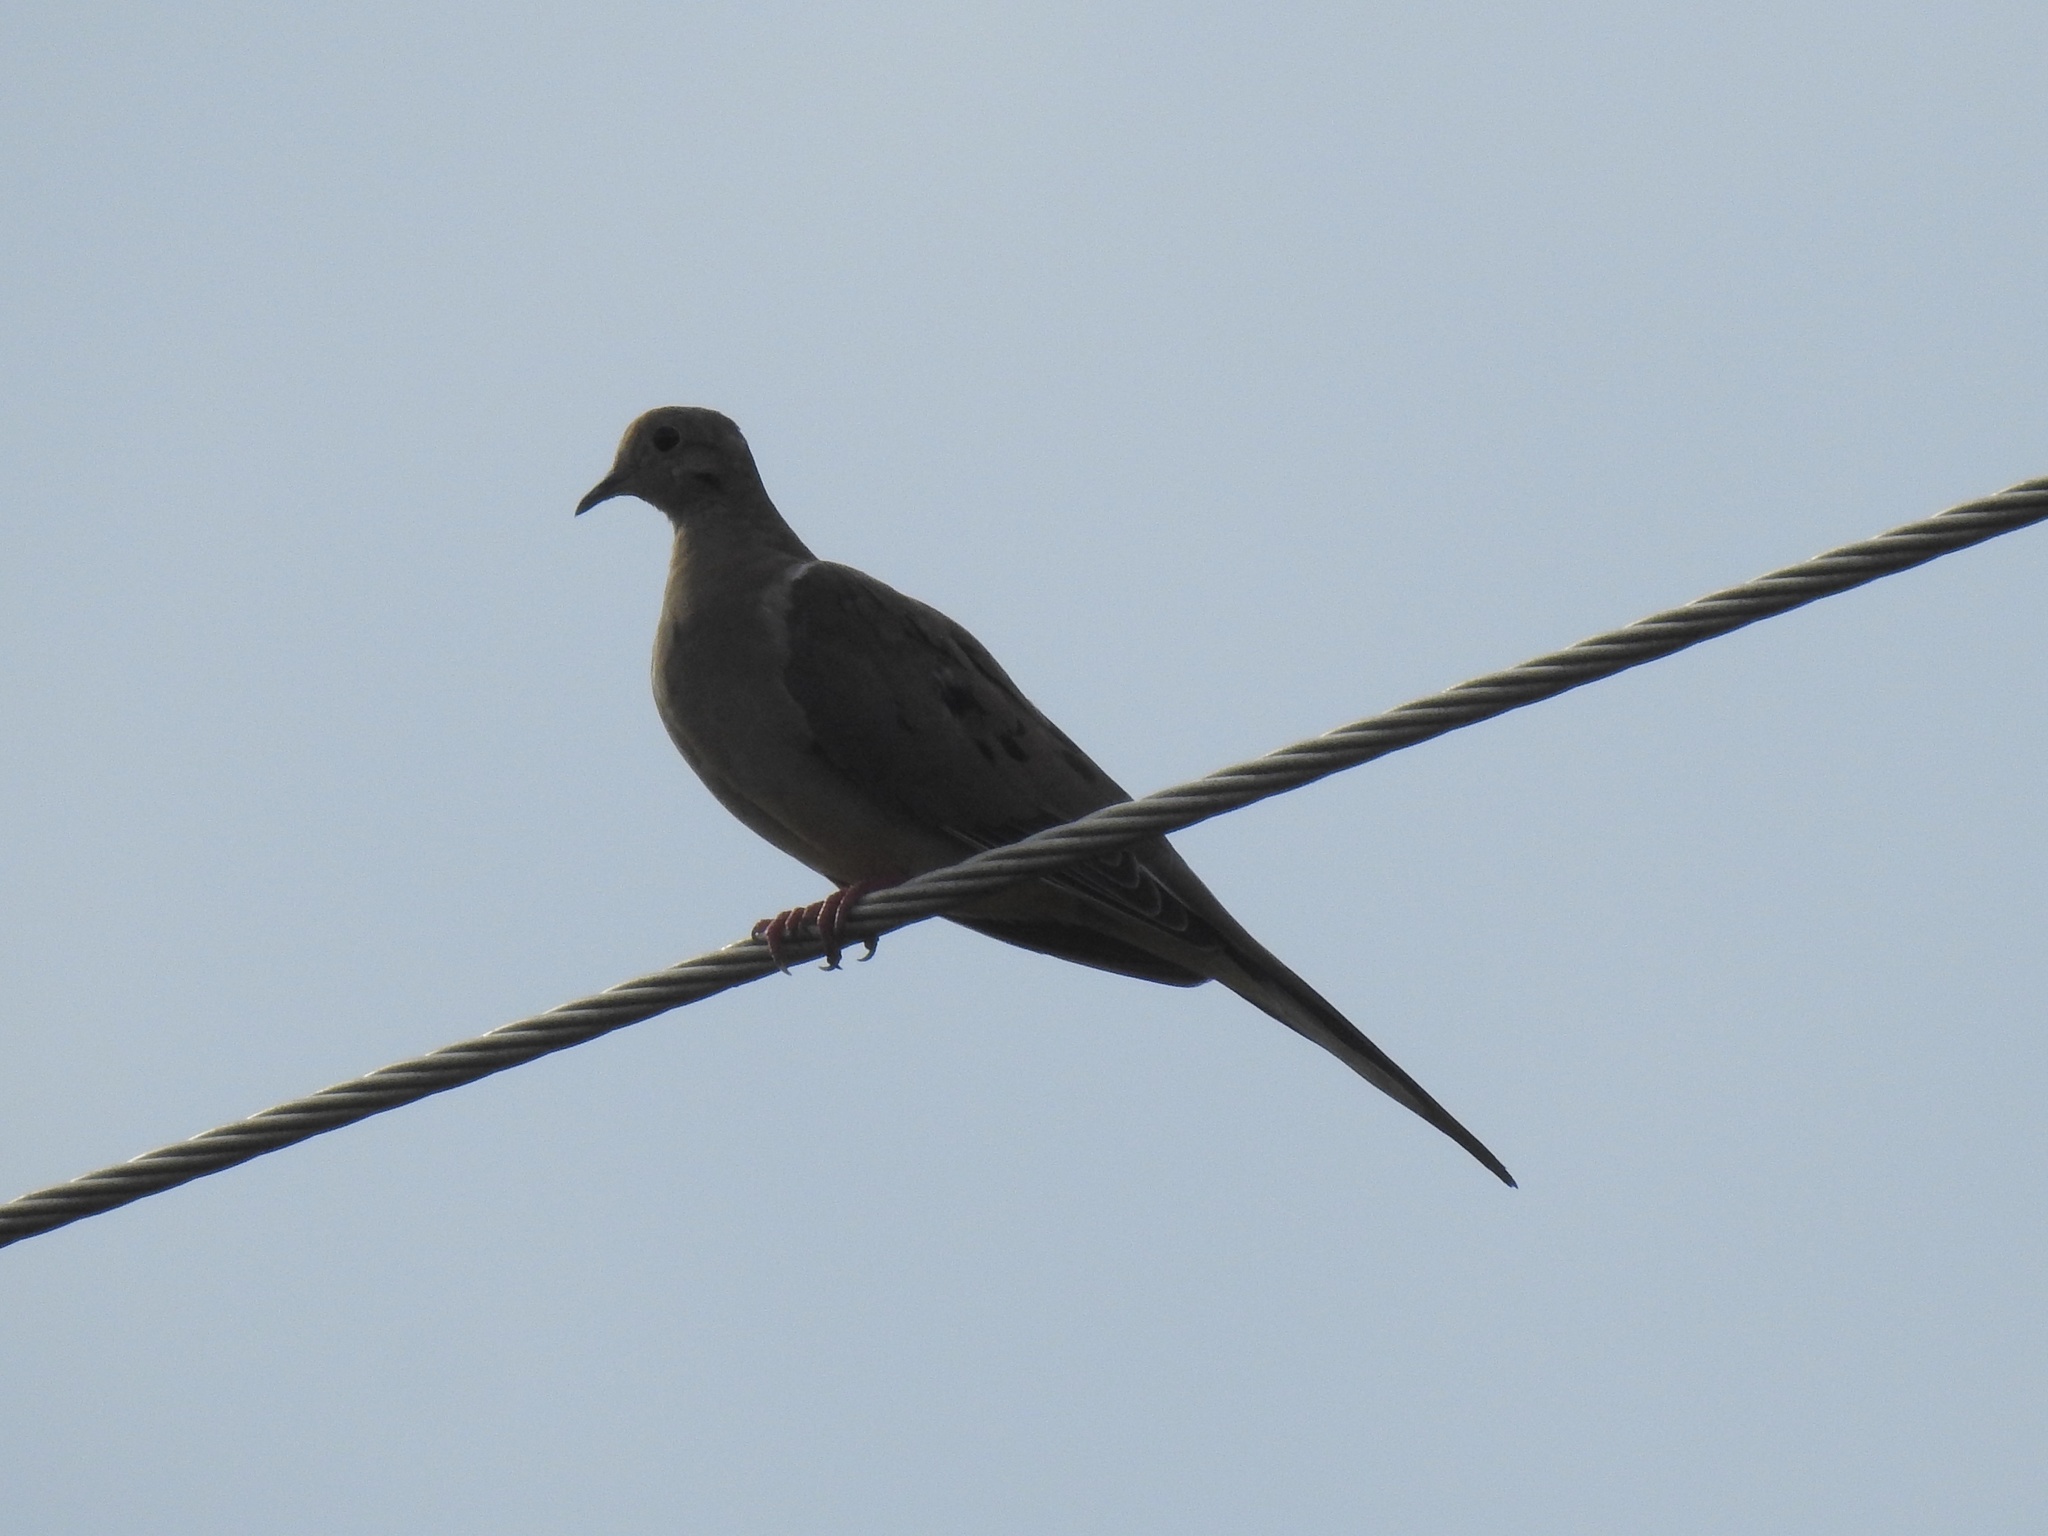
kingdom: Animalia
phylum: Chordata
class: Aves
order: Columbiformes
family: Columbidae
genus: Zenaida
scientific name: Zenaida macroura
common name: Mourning dove
